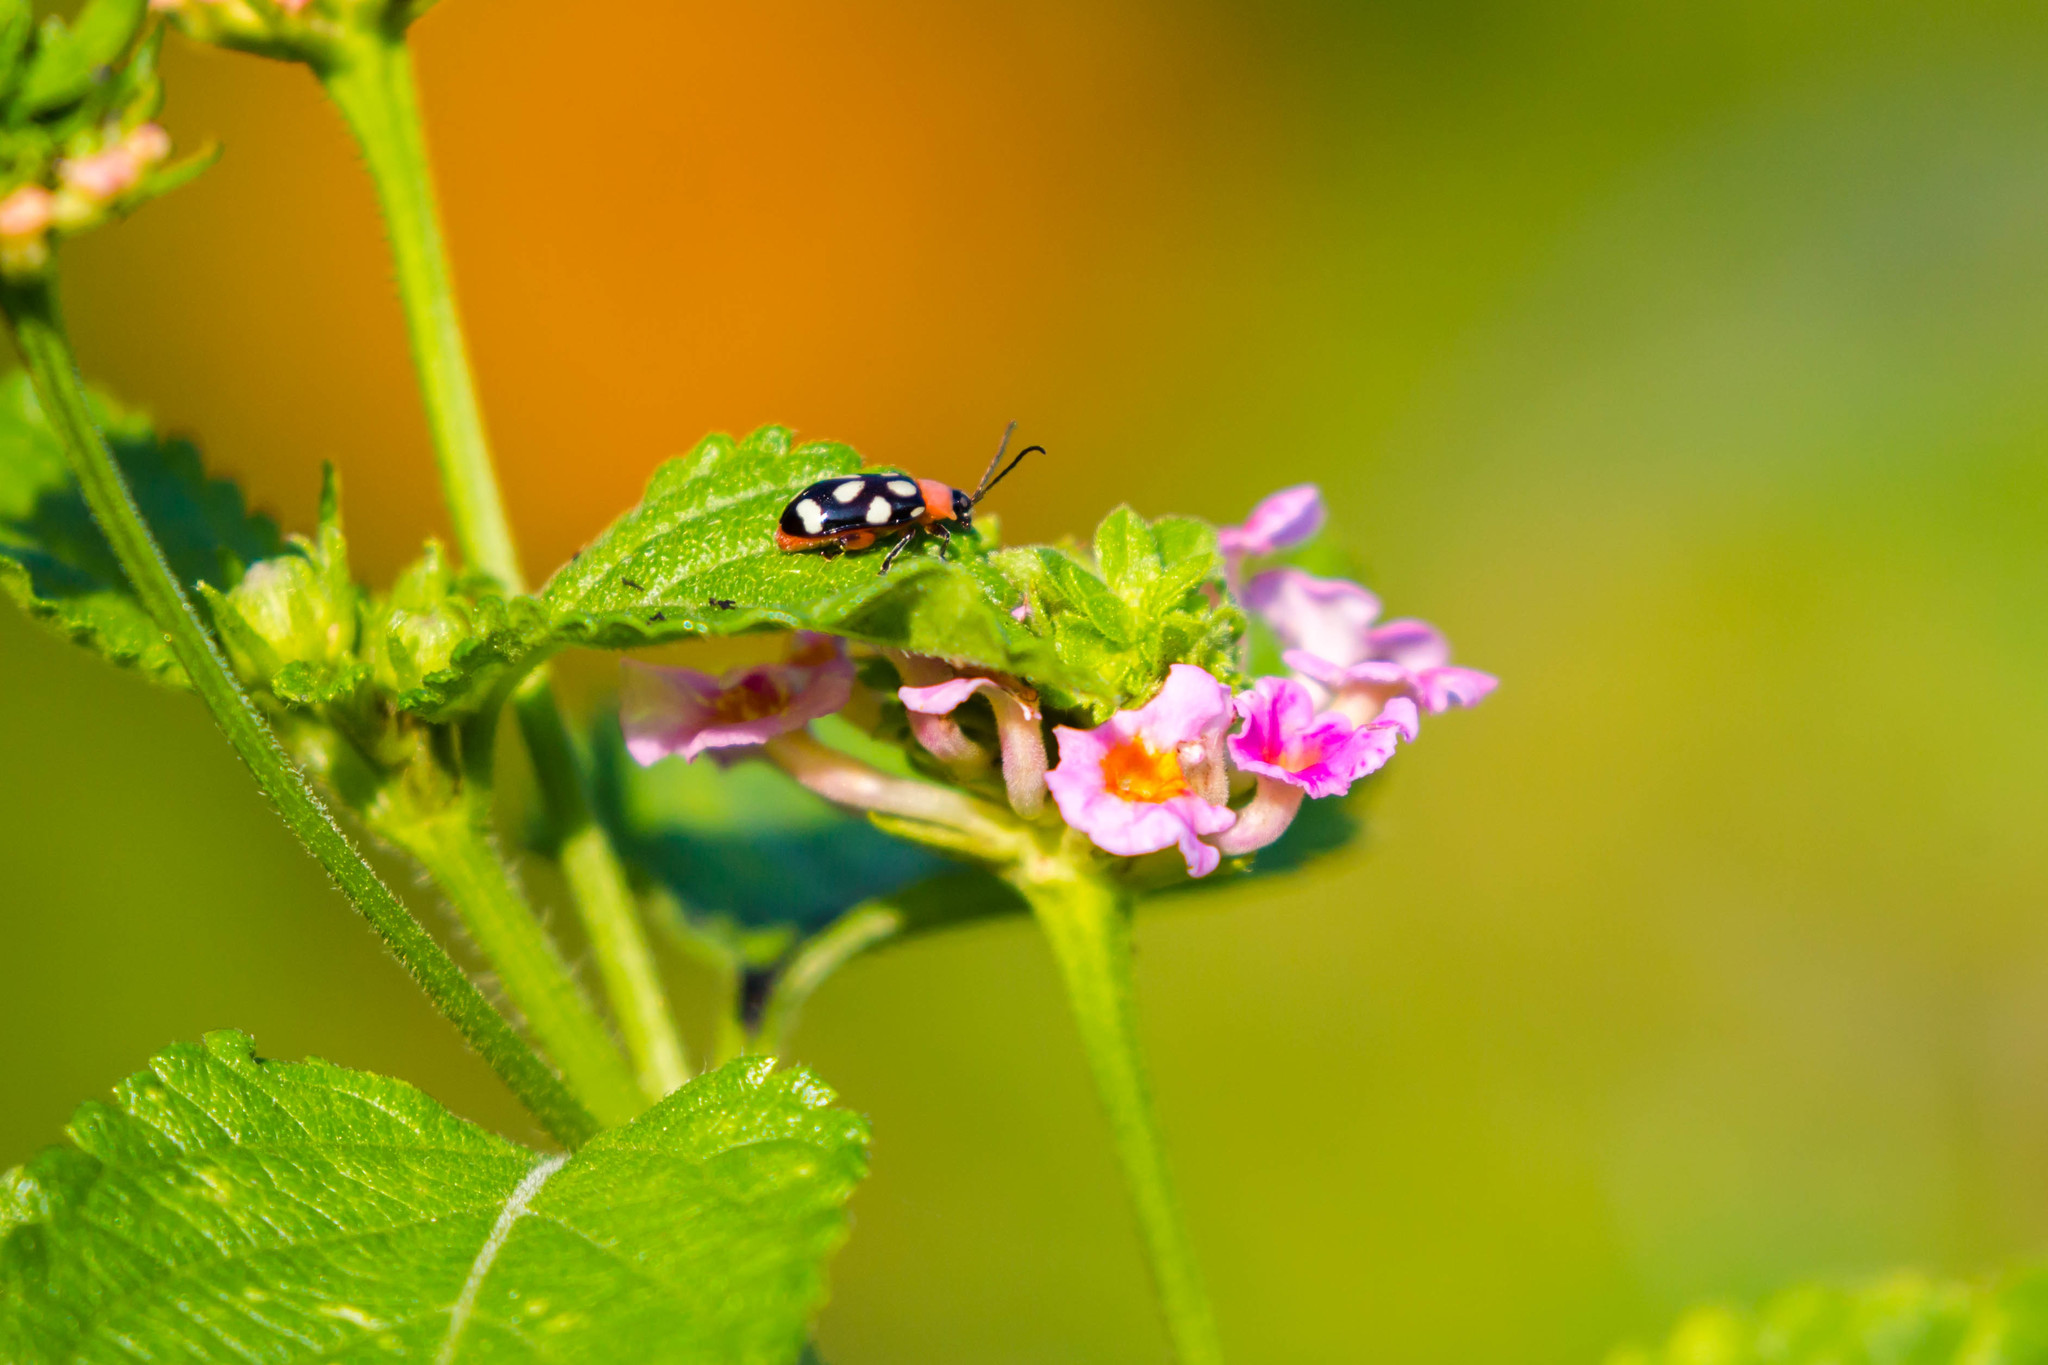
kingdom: Animalia
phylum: Arthropoda
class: Insecta
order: Coleoptera
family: Chrysomelidae
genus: Omophoita
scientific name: Omophoita cyanipennis
